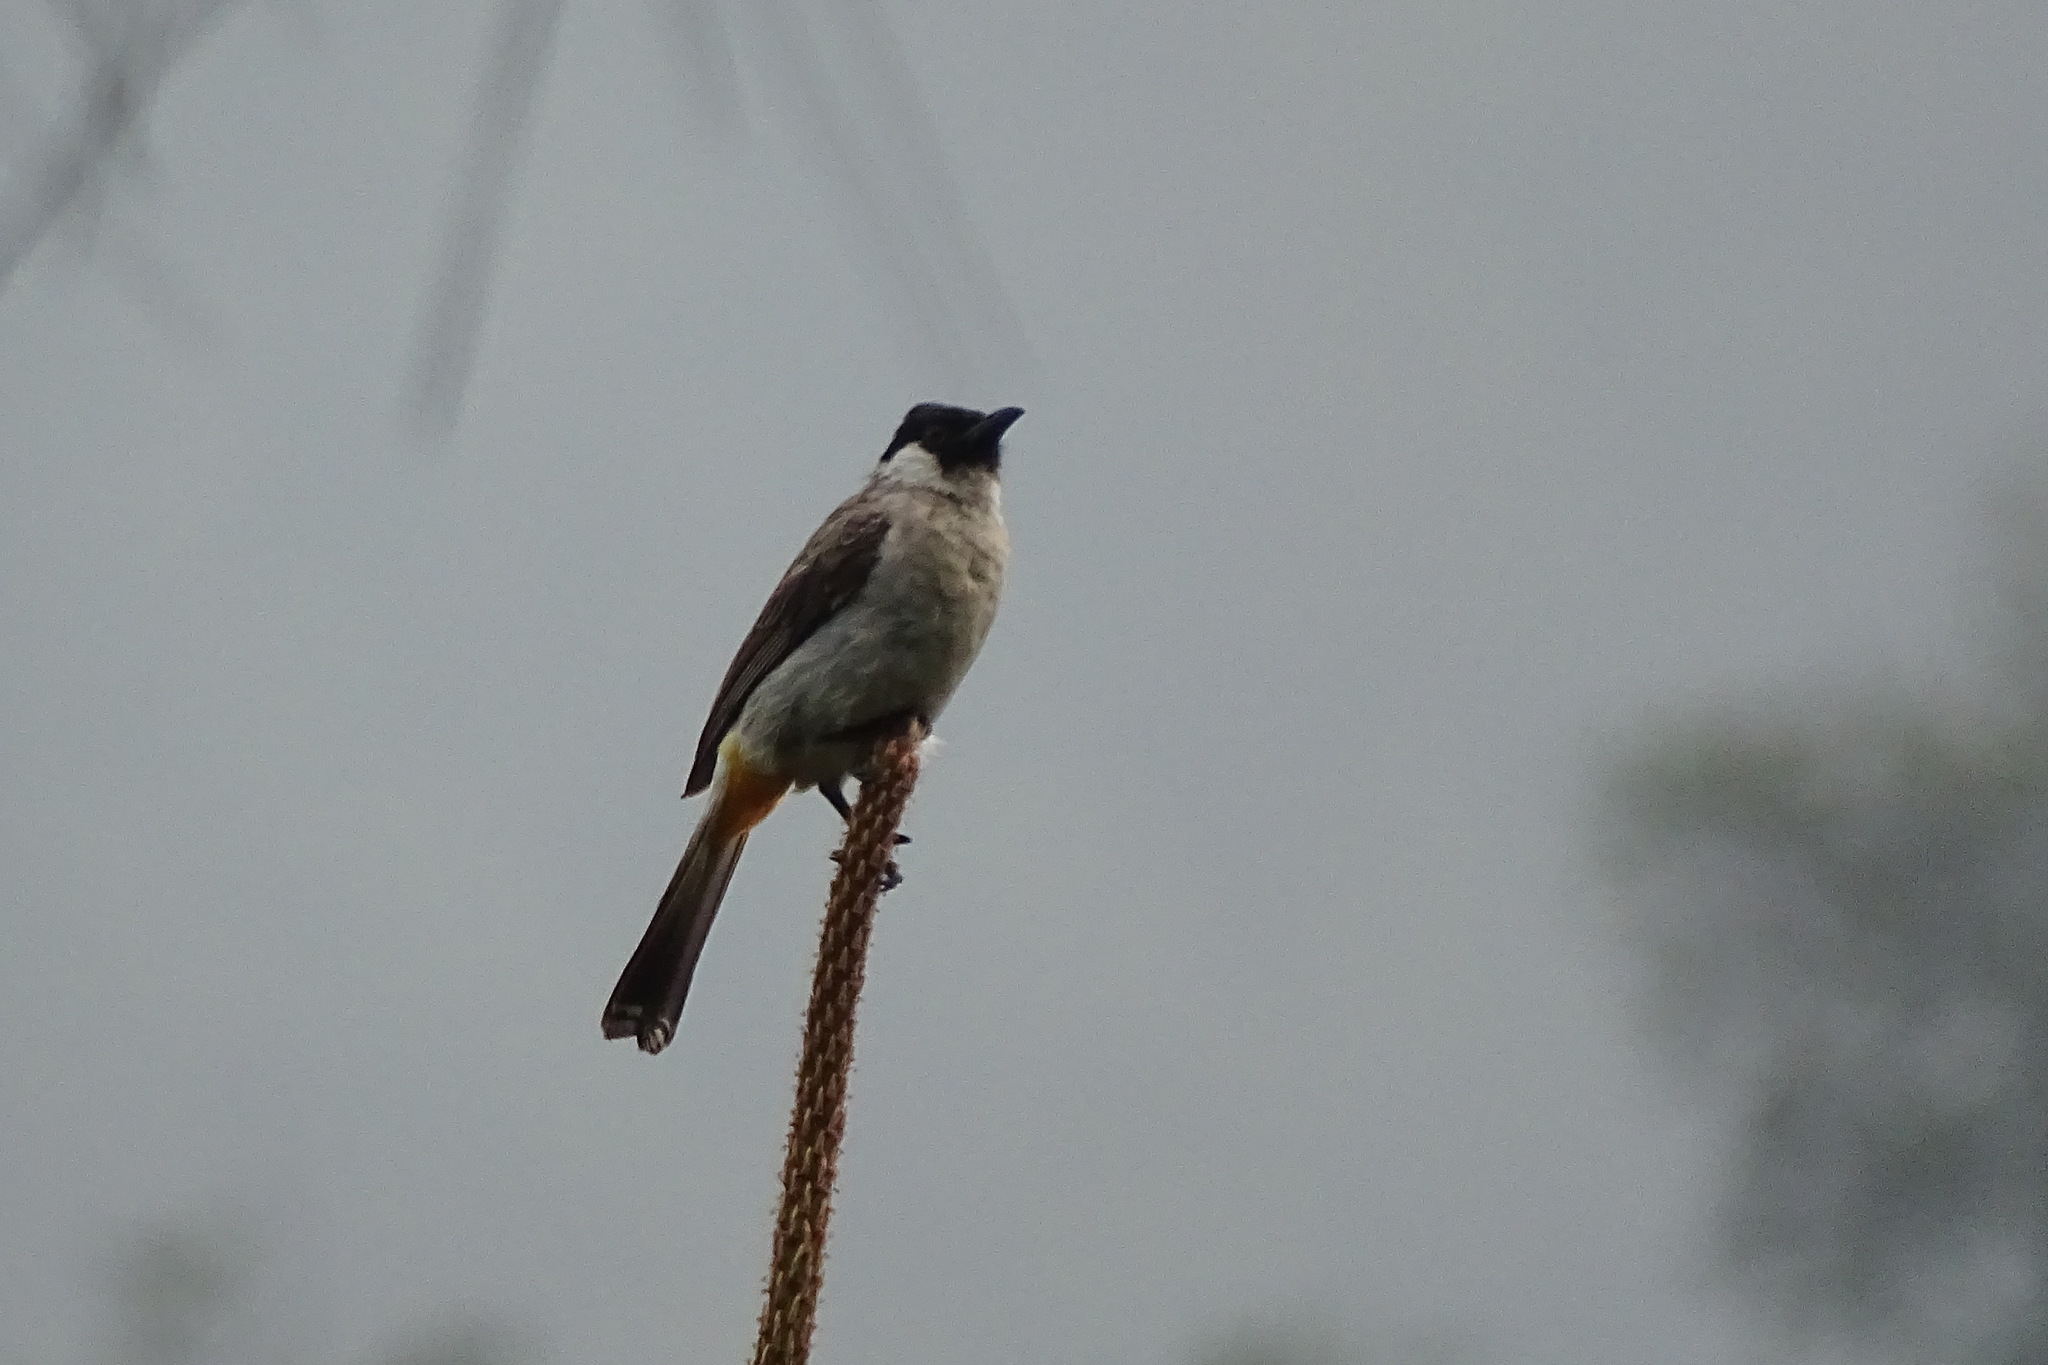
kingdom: Animalia
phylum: Chordata
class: Aves
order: Passeriformes
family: Pycnonotidae
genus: Pycnonotus
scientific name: Pycnonotus aurigaster
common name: Sooty-headed bulbul
